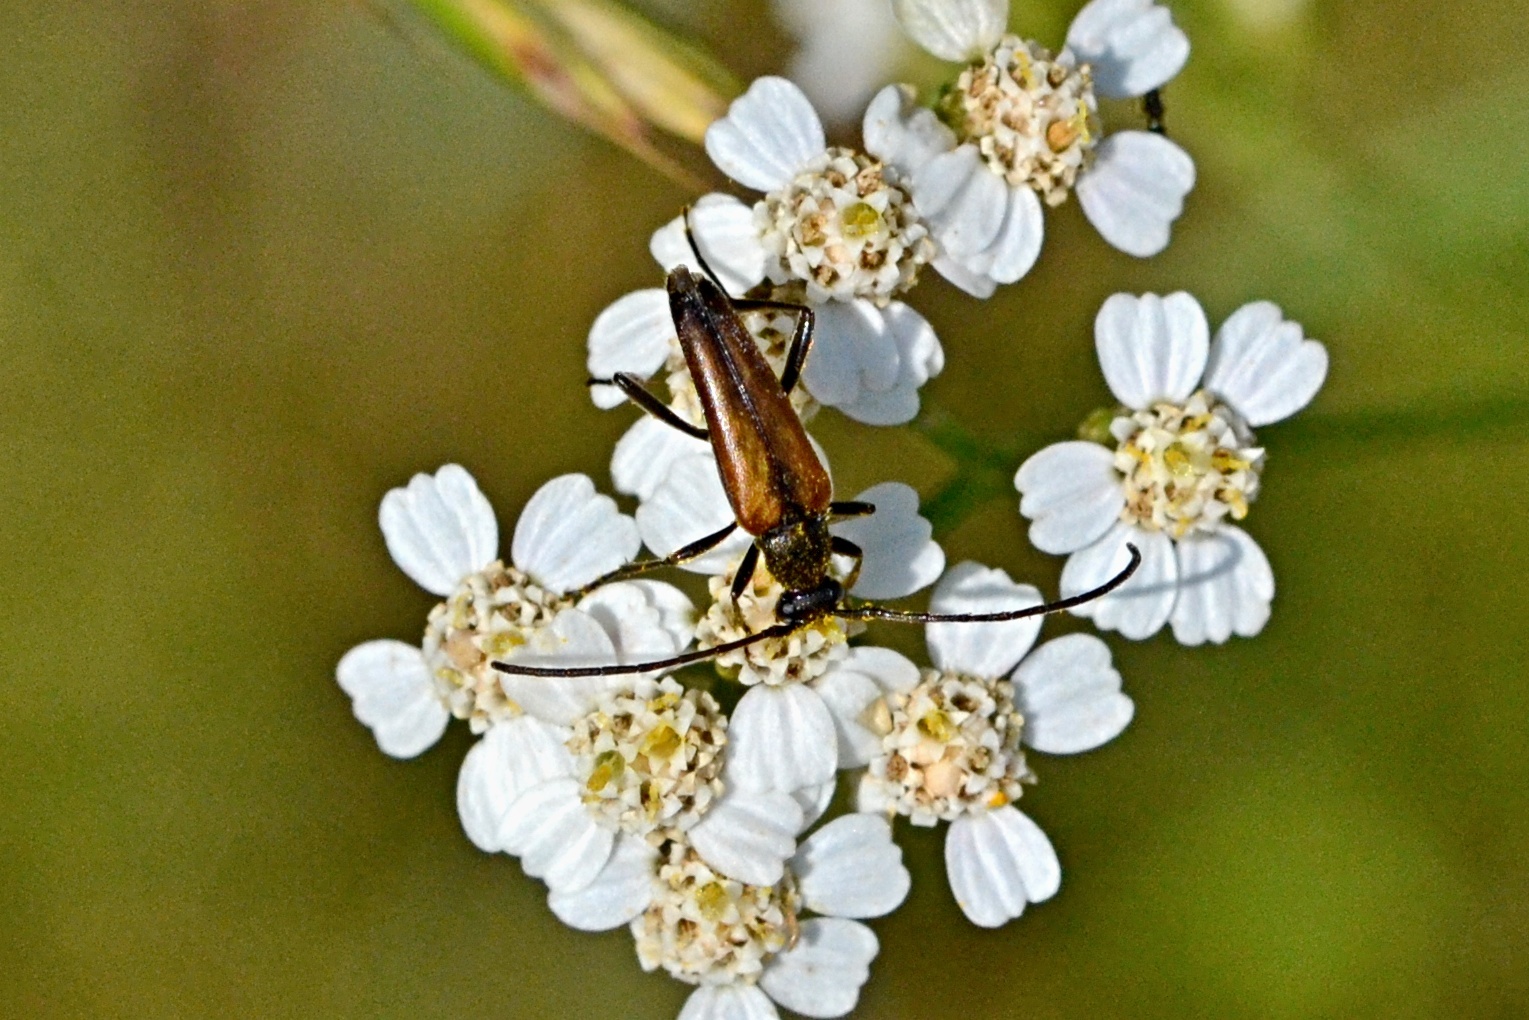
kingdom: Animalia
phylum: Arthropoda
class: Insecta
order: Coleoptera
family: Cerambycidae
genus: Stenurella
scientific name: Stenurella melanura
